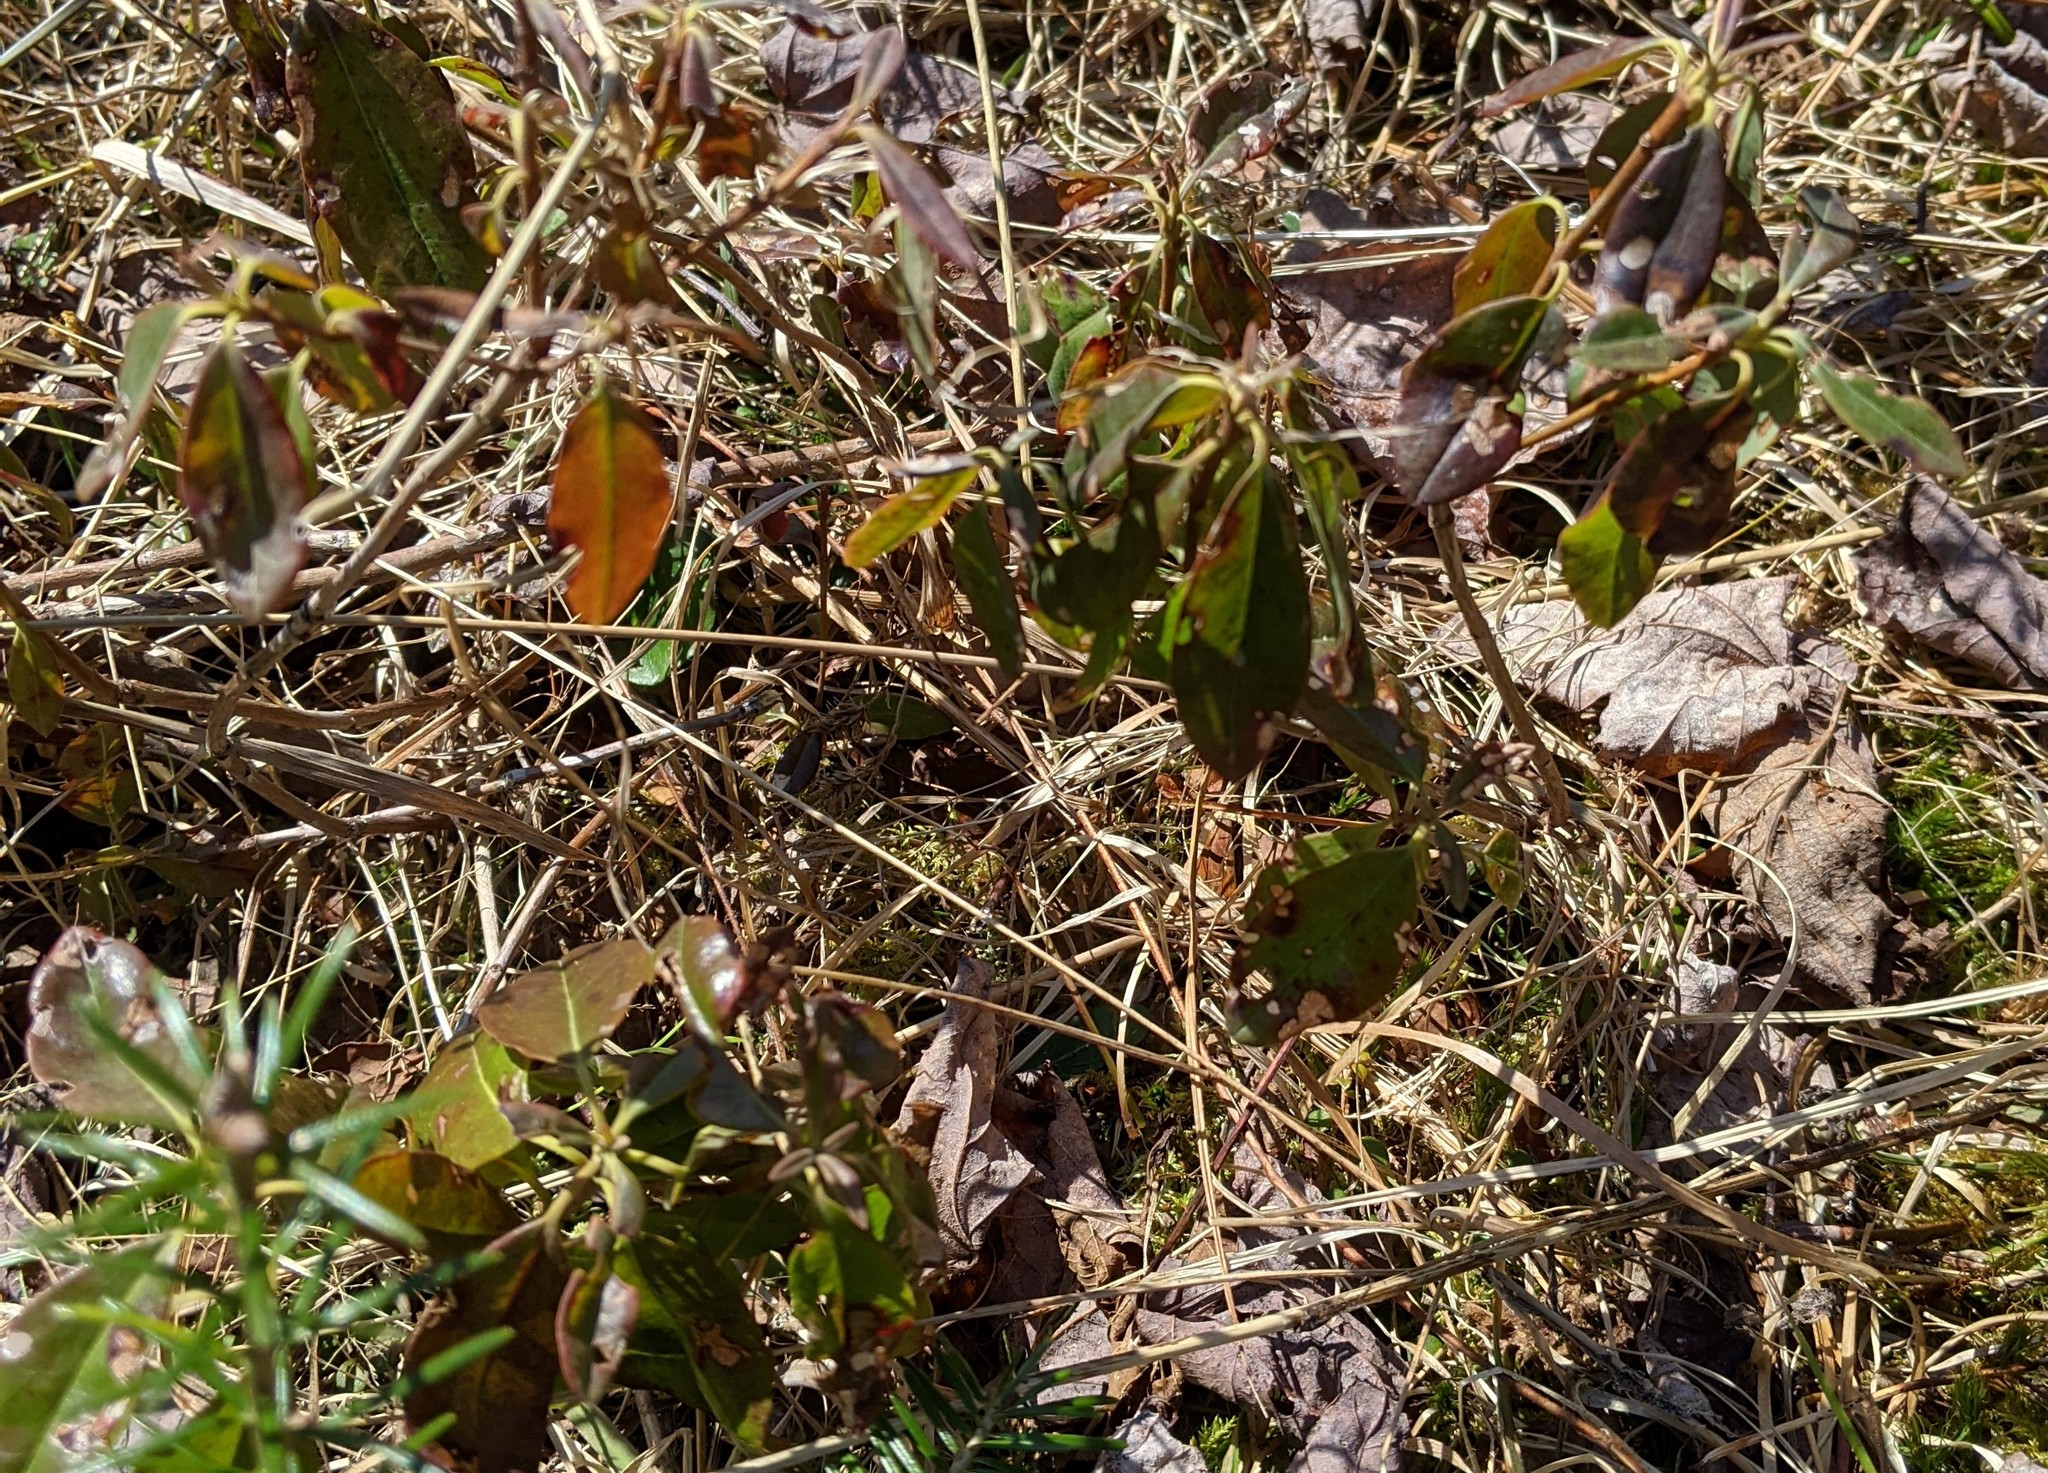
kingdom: Plantae
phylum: Tracheophyta
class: Magnoliopsida
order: Ericales
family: Ericaceae
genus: Kalmia
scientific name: Kalmia angustifolia
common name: Sheep-laurel
